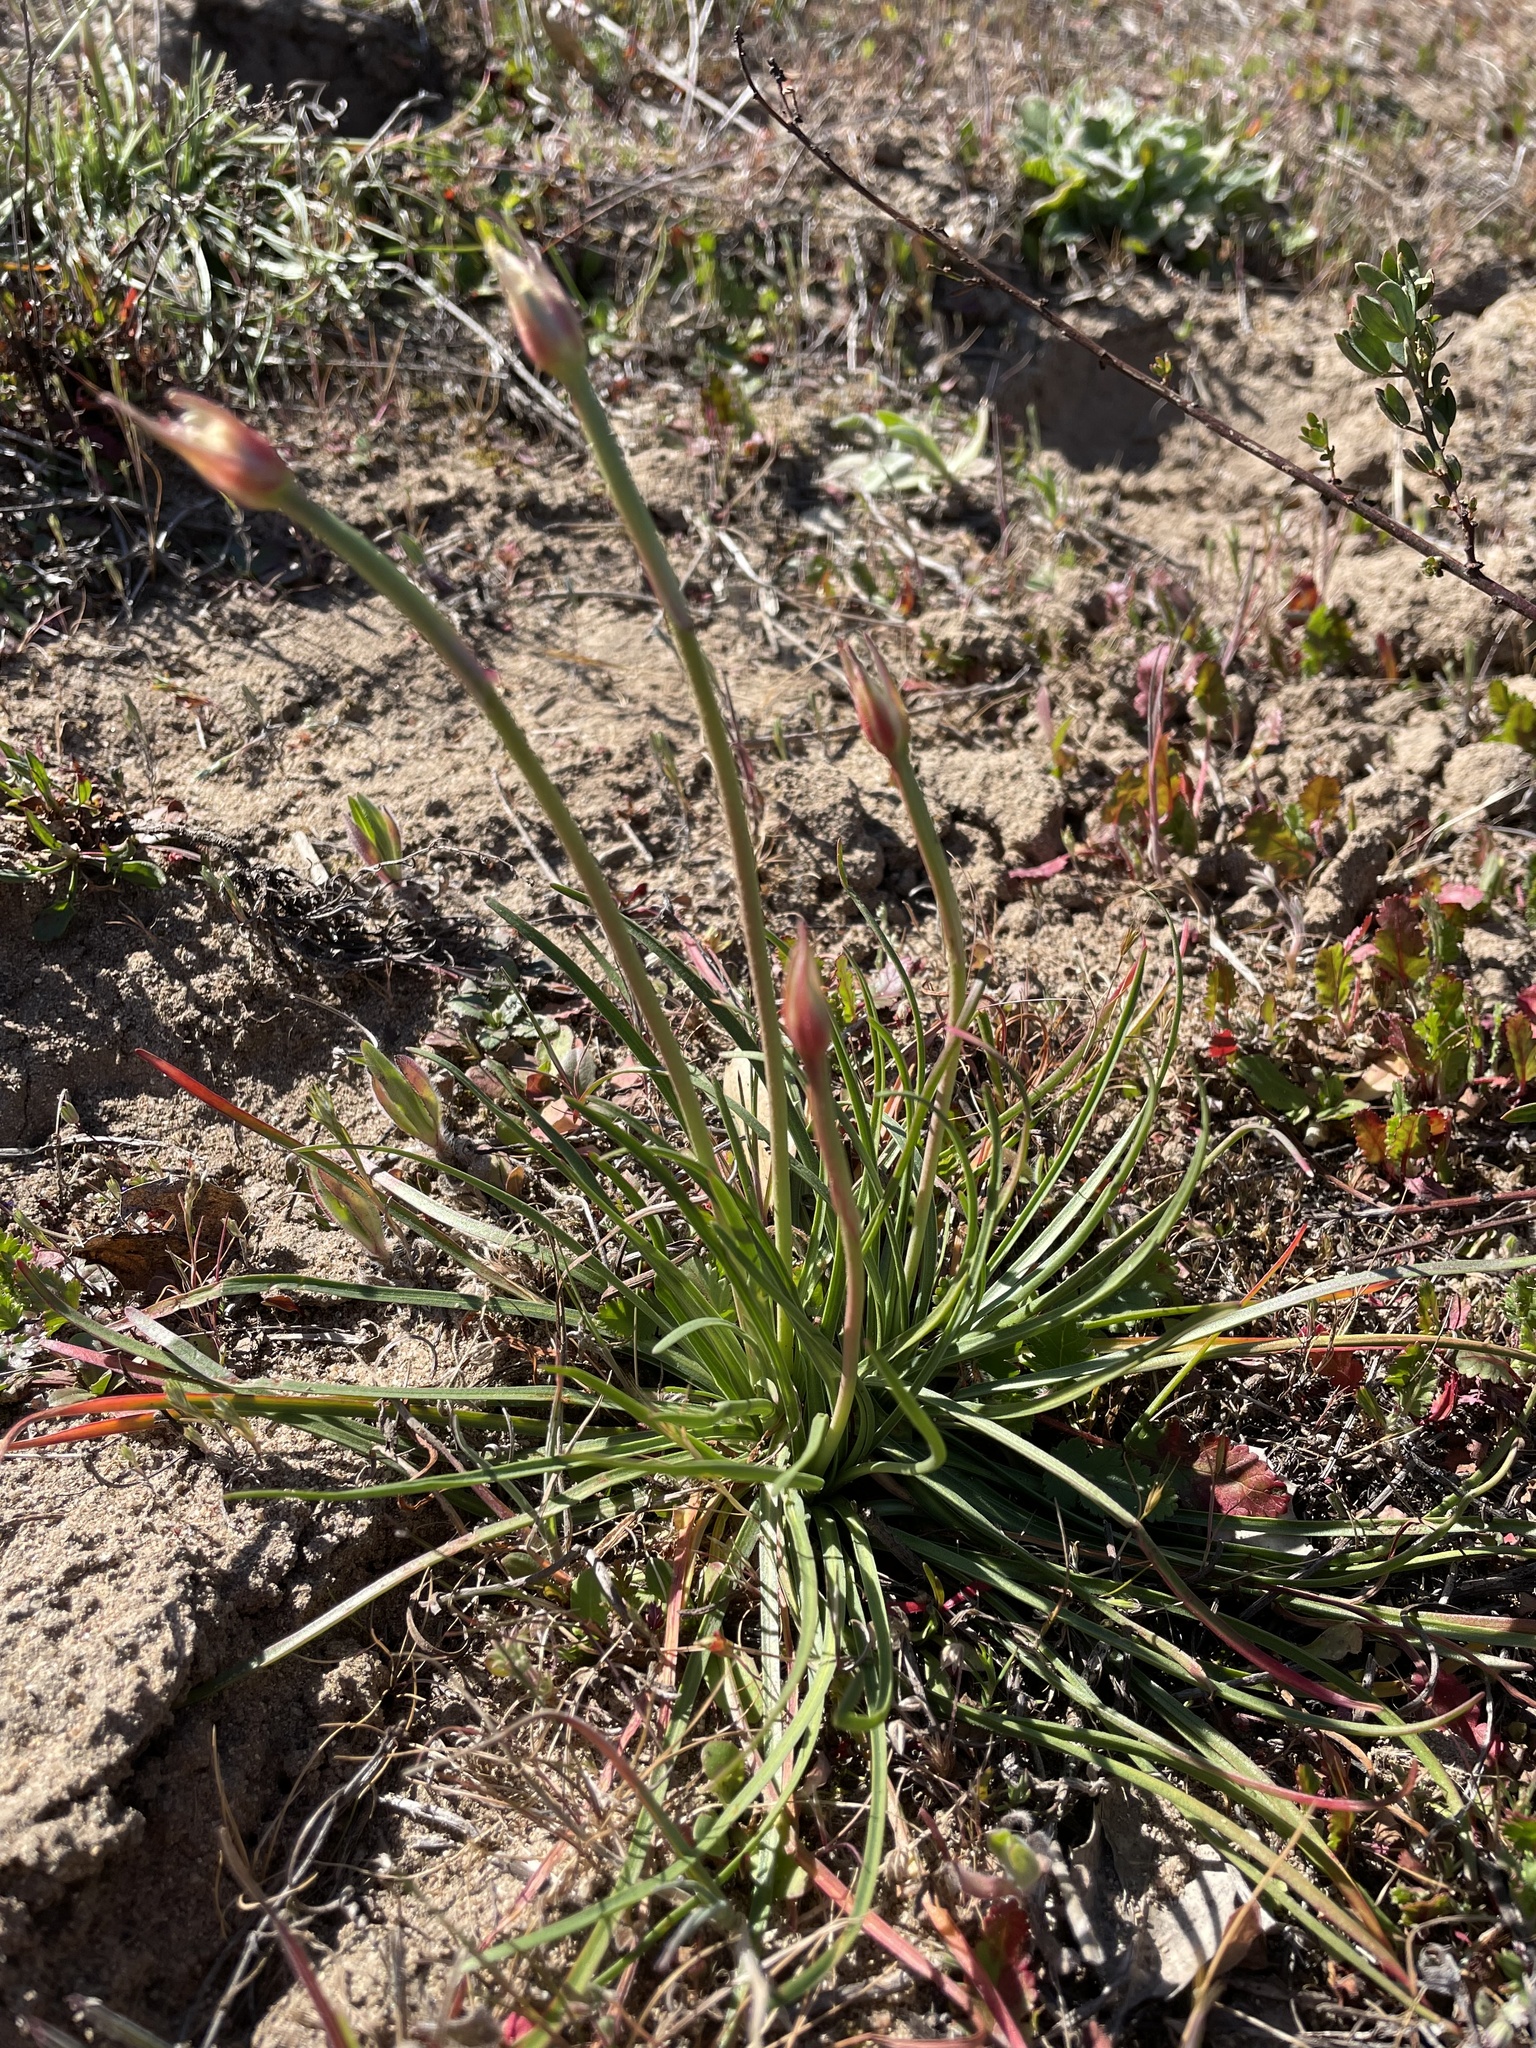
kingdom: Plantae
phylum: Tracheophyta
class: Magnoliopsida
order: Caryophyllales
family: Plumbaginaceae
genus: Armeria
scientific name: Armeria maritima
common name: Thrift
